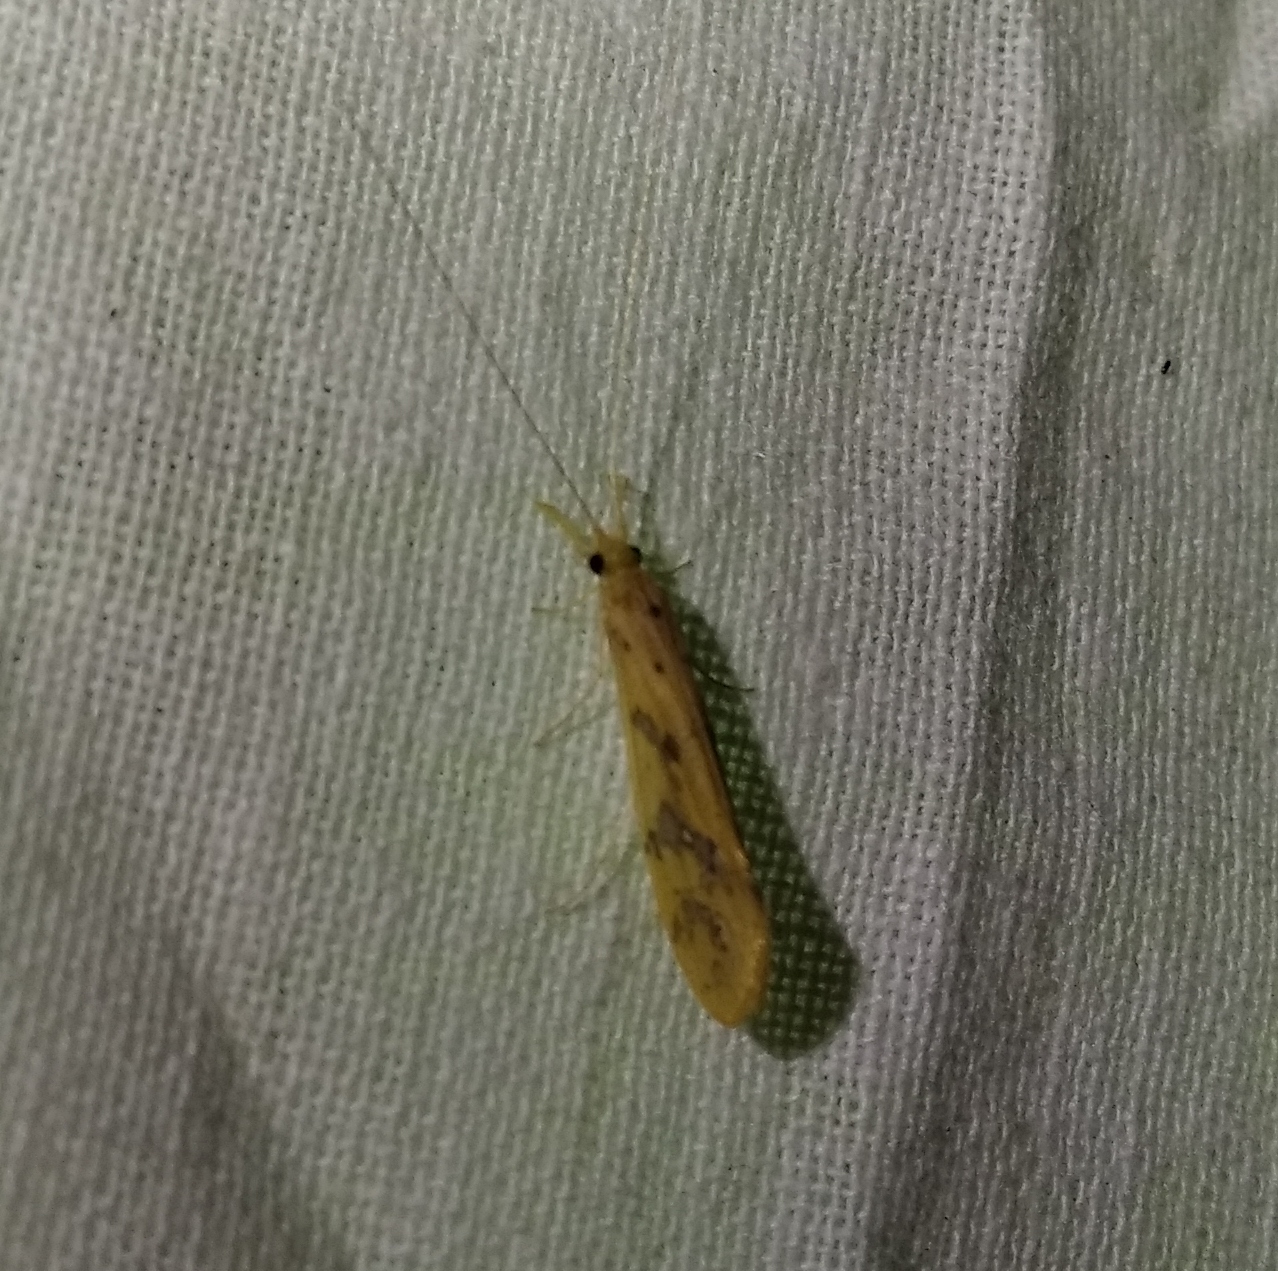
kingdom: Animalia
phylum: Arthropoda
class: Insecta
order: Trichoptera
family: Leptoceridae
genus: Mystacides
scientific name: Mystacides longicornis
